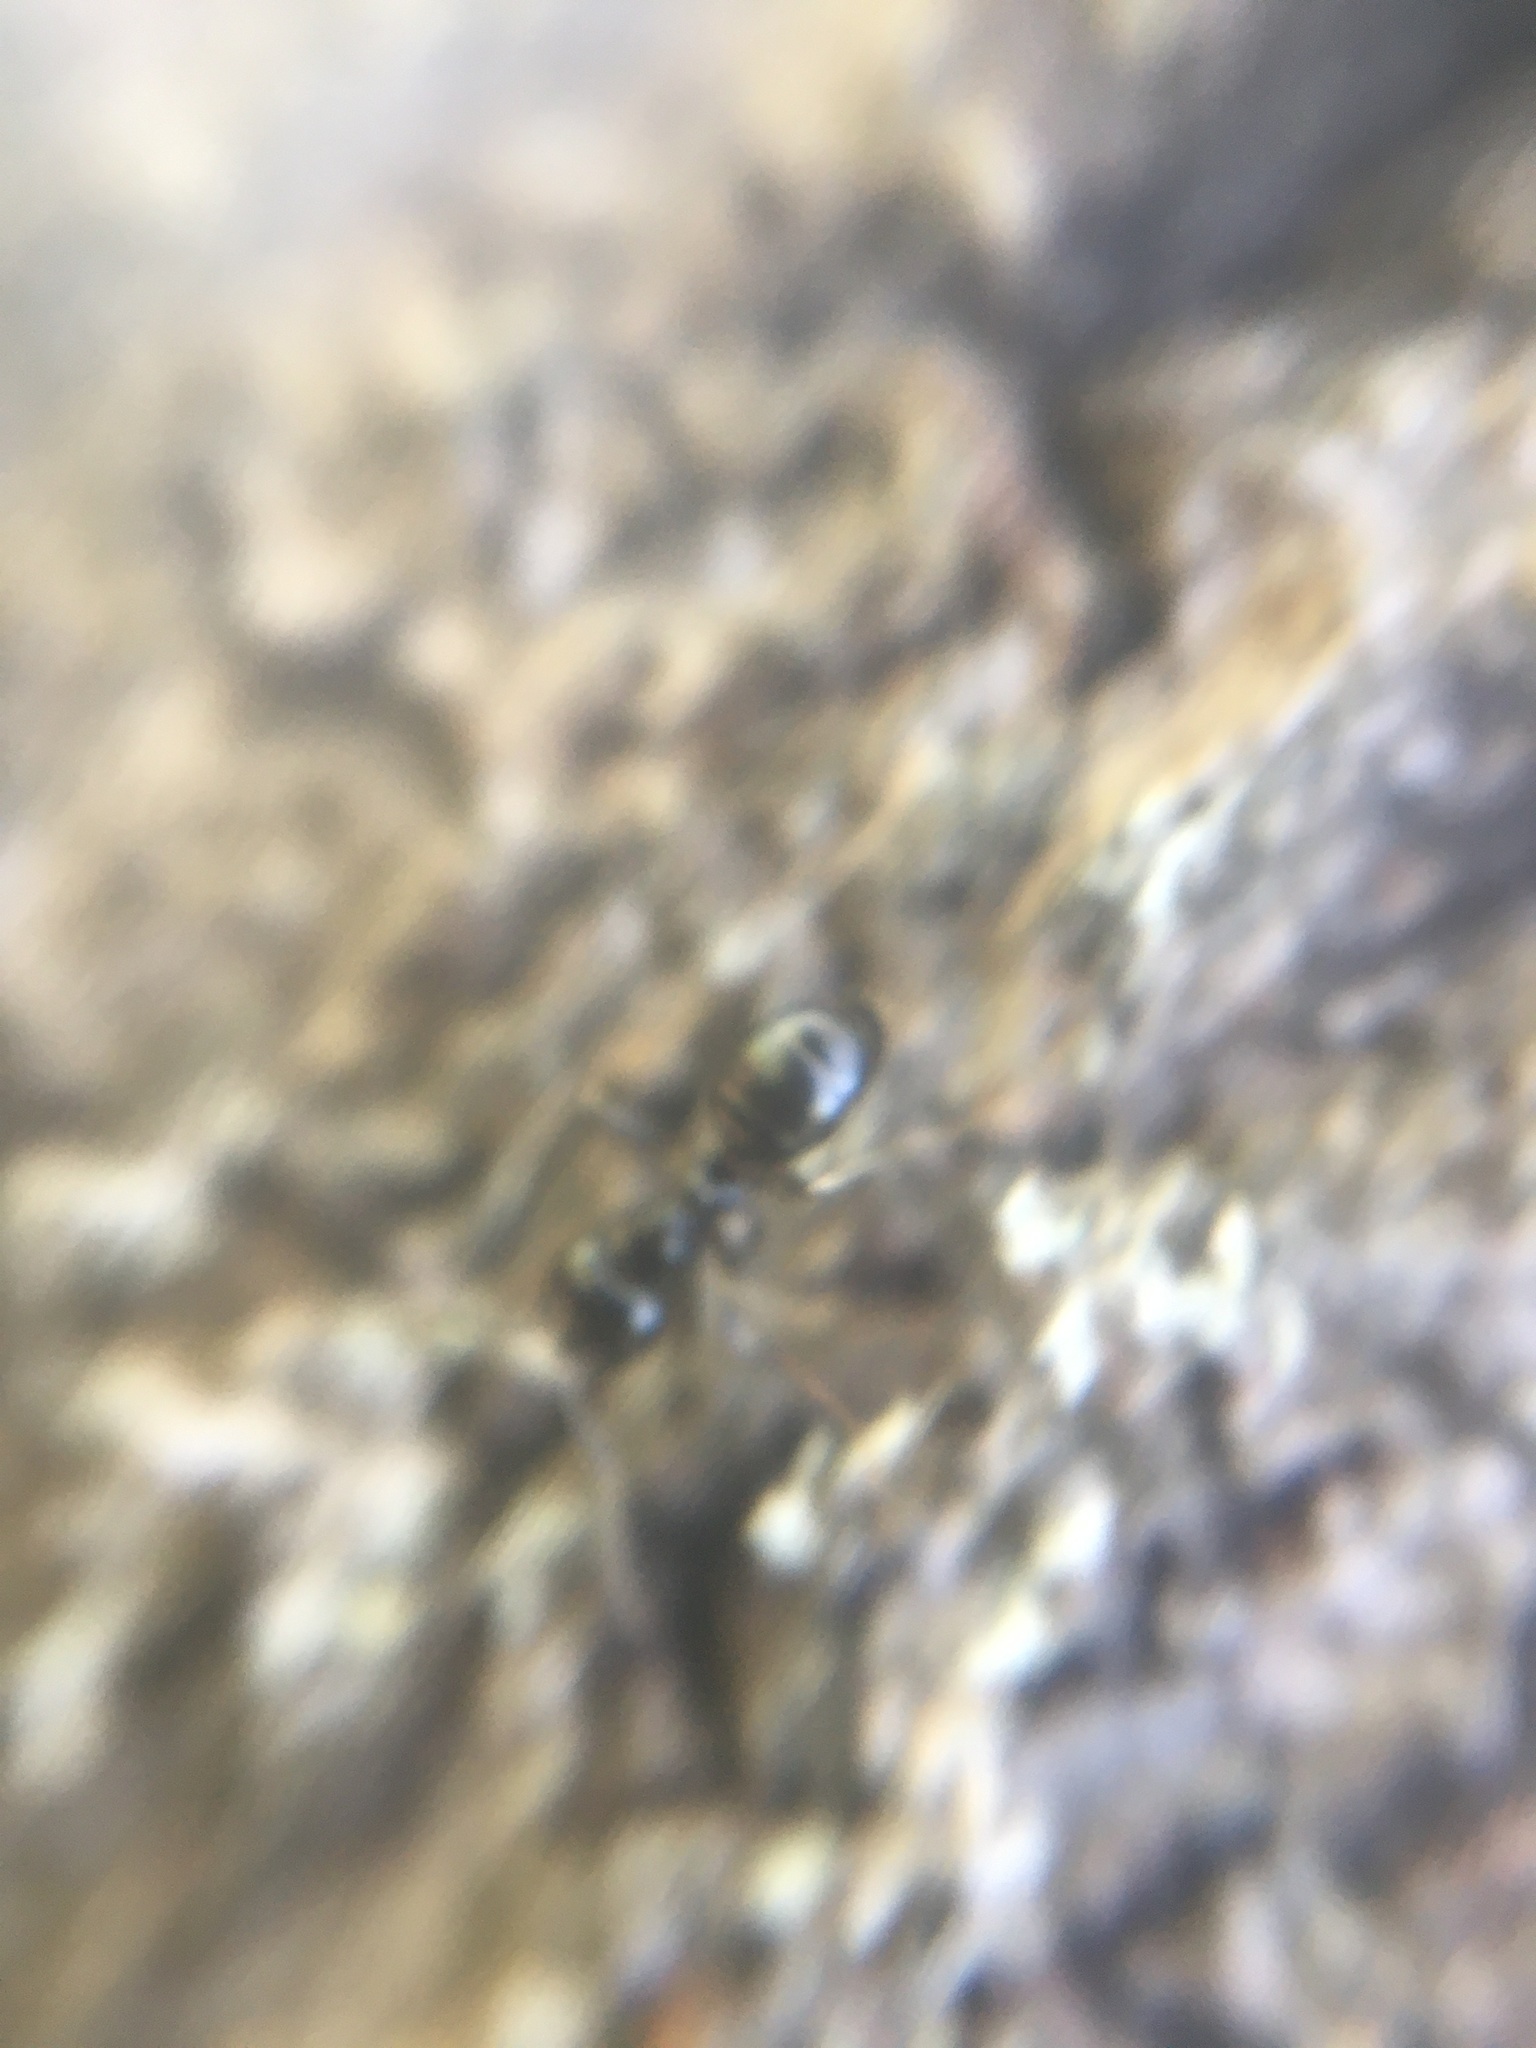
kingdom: Animalia
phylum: Arthropoda
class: Insecta
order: Hymenoptera
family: Formicidae
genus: Lasius
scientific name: Lasius fuliginosus
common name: Jet ant
